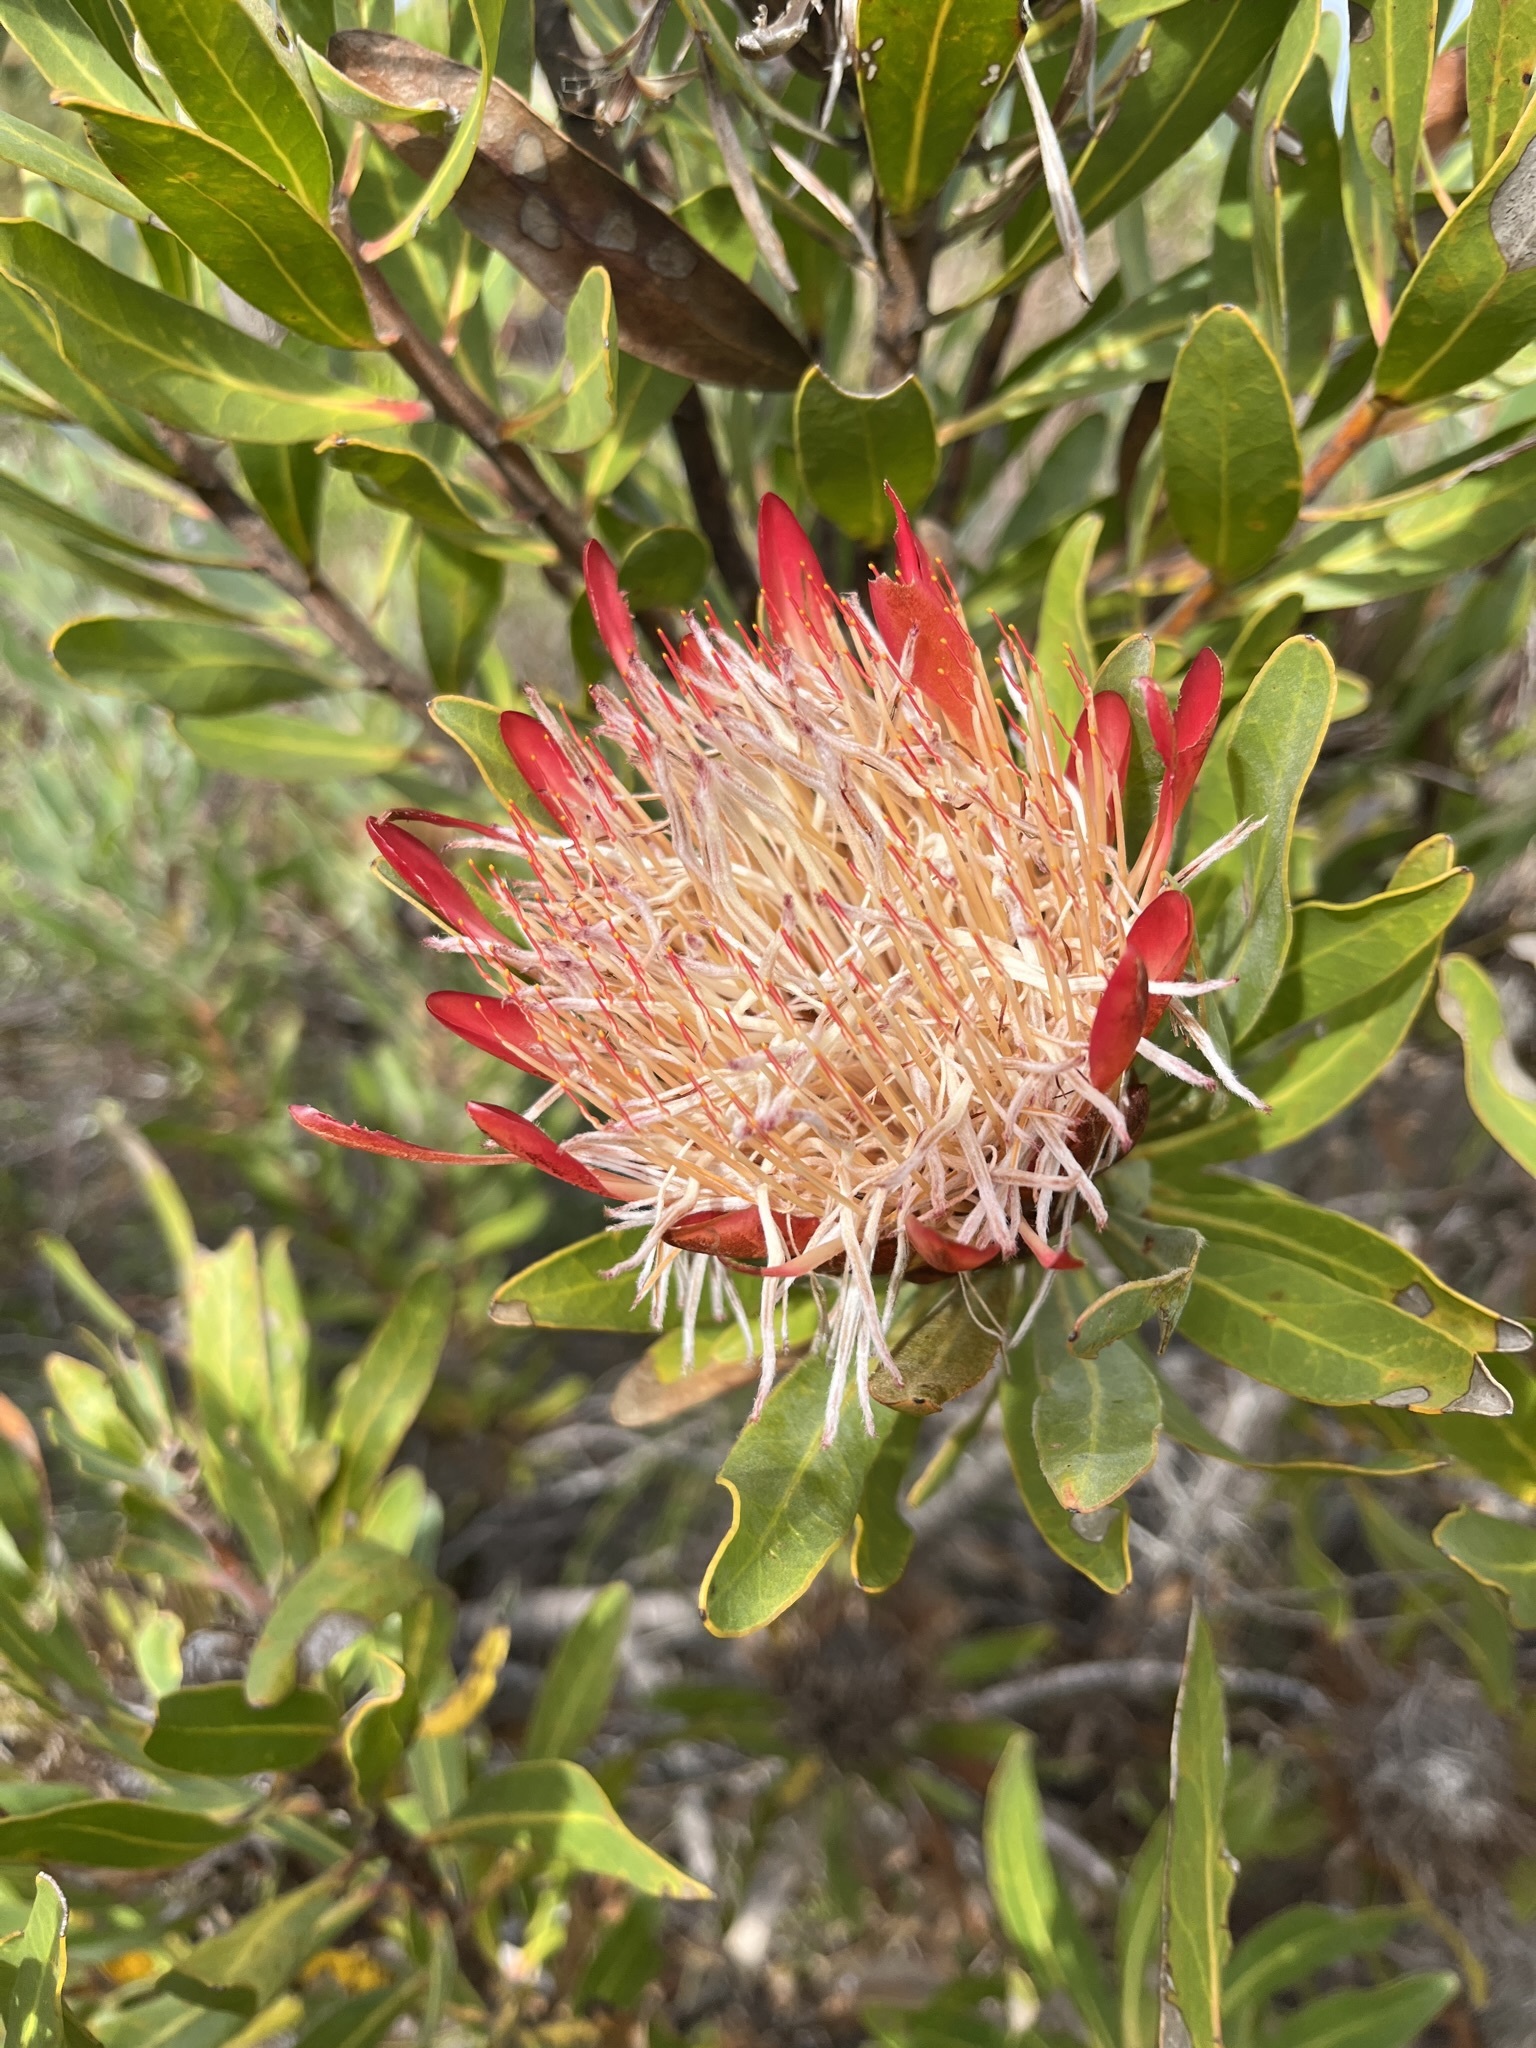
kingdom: Plantae
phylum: Tracheophyta
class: Magnoliopsida
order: Proteales
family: Proteaceae
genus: Protea
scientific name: Protea susannae
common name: Foetid-leaf sugarbush
